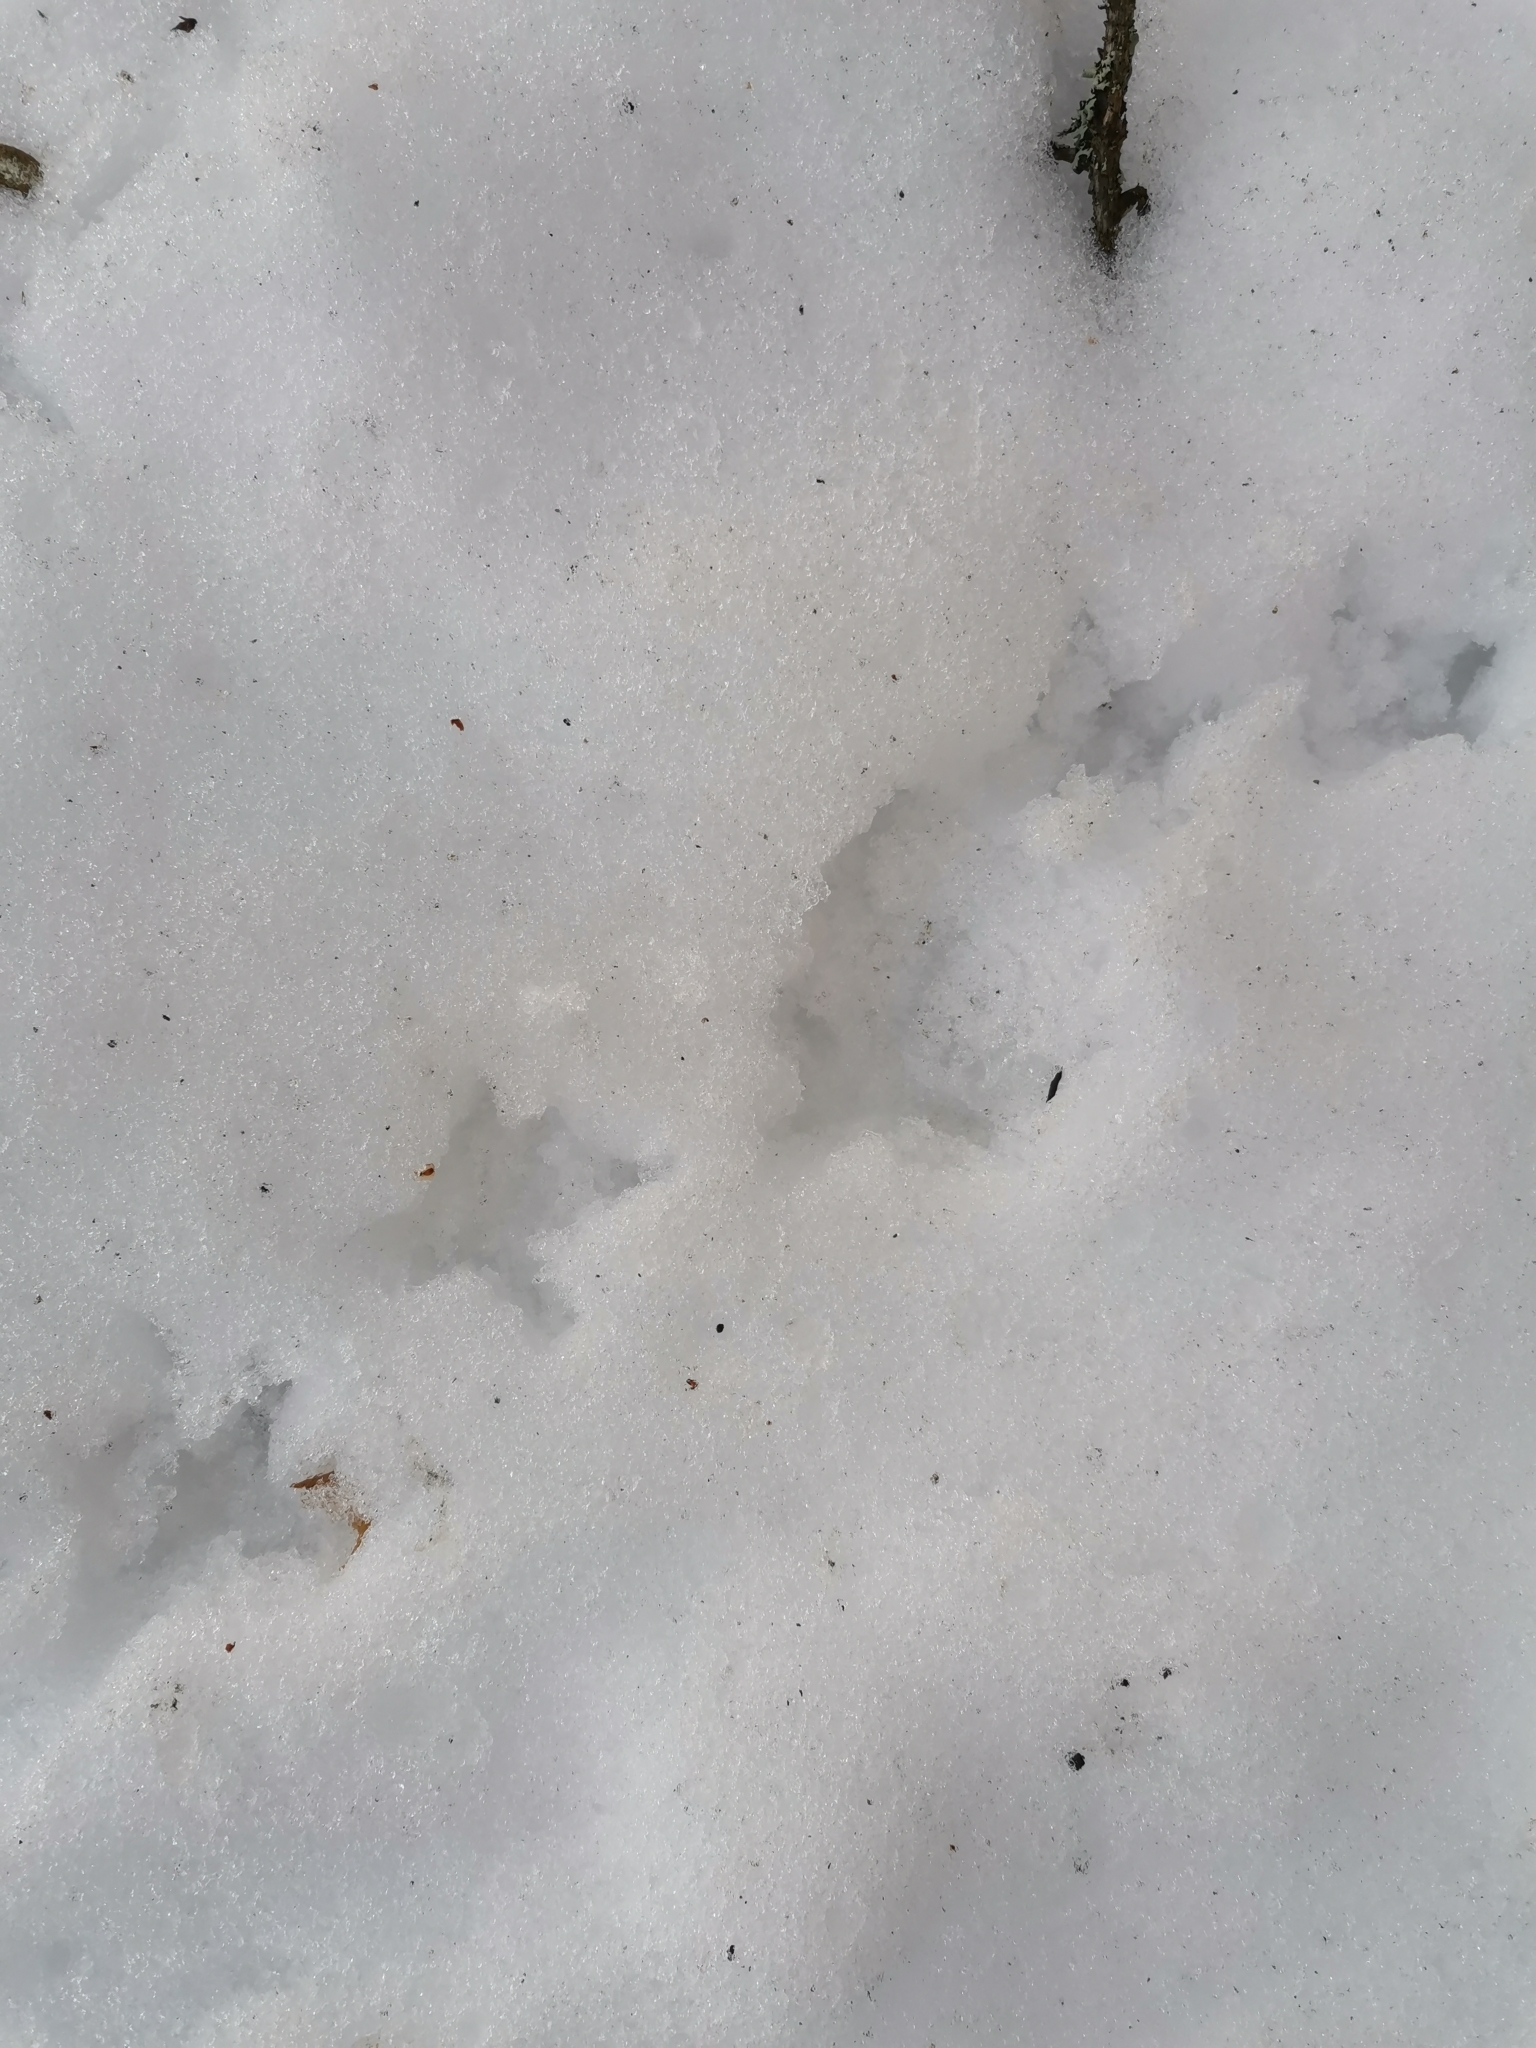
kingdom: Animalia
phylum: Chordata
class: Aves
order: Galliformes
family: Phasianidae
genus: Tetrastes
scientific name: Tetrastes bonasia
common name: Hazel grouse
